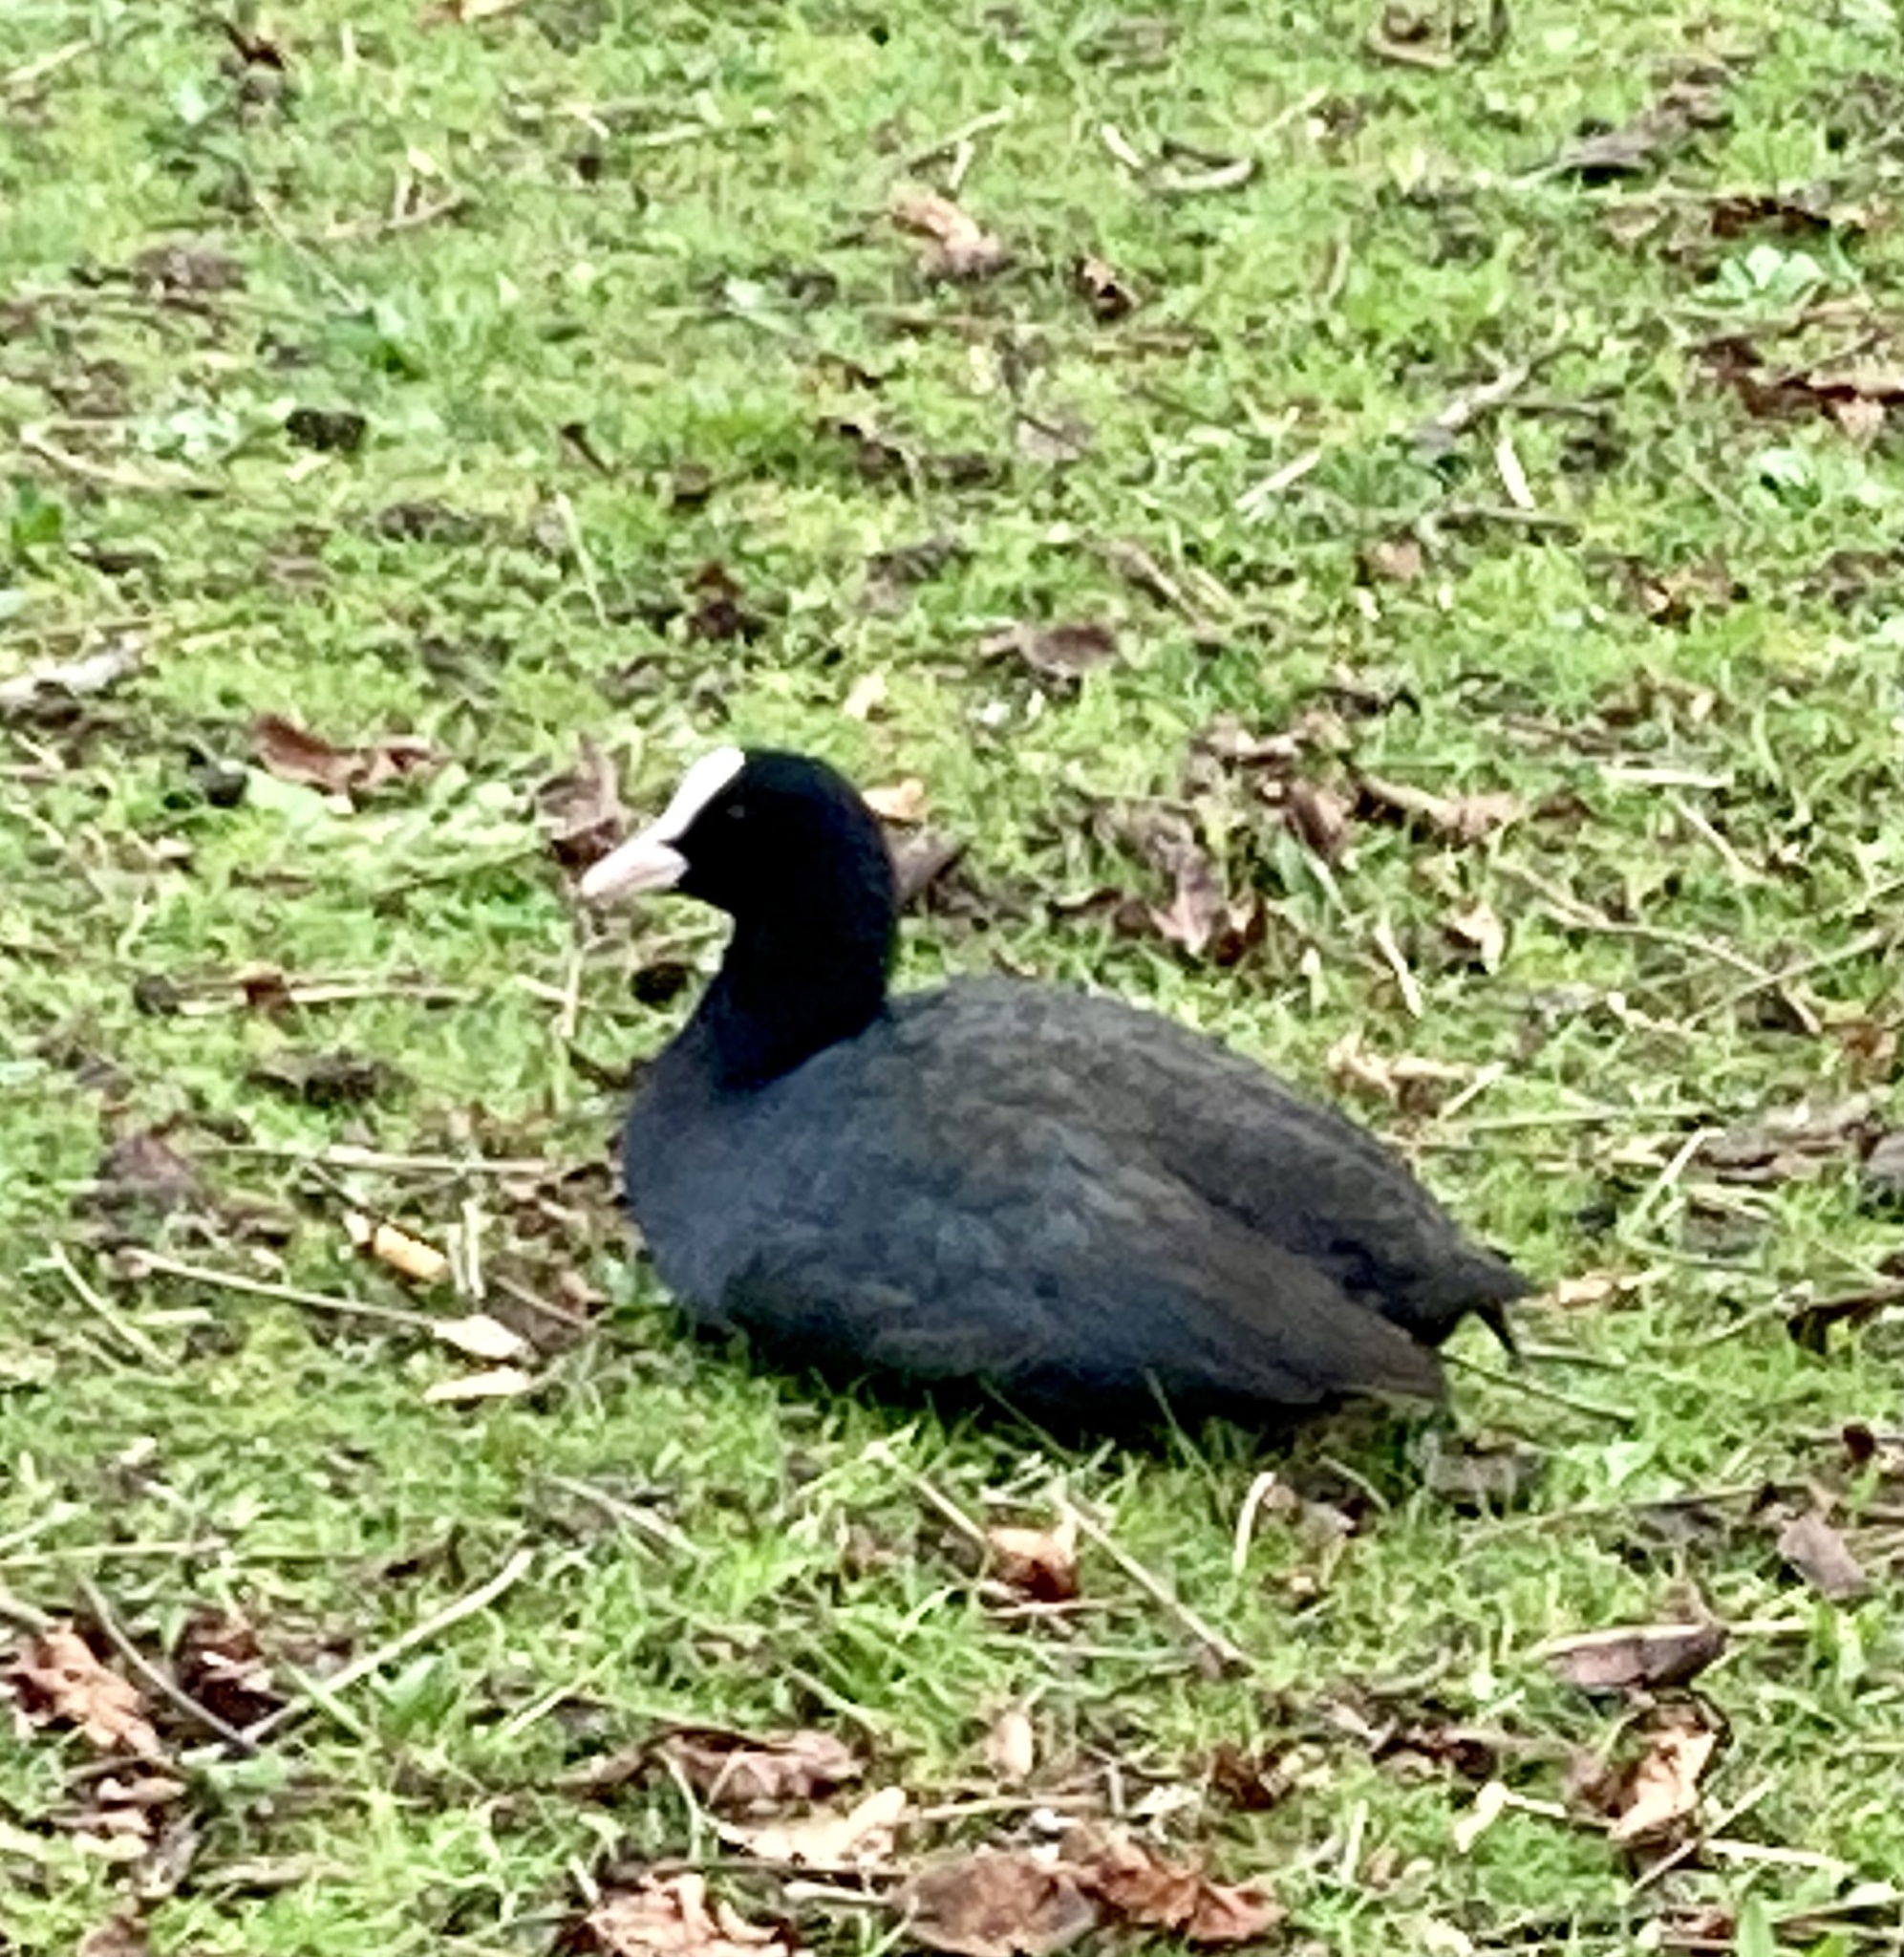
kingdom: Animalia
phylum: Chordata
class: Aves
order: Gruiformes
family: Rallidae
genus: Fulica
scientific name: Fulica atra
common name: Eurasian coot
